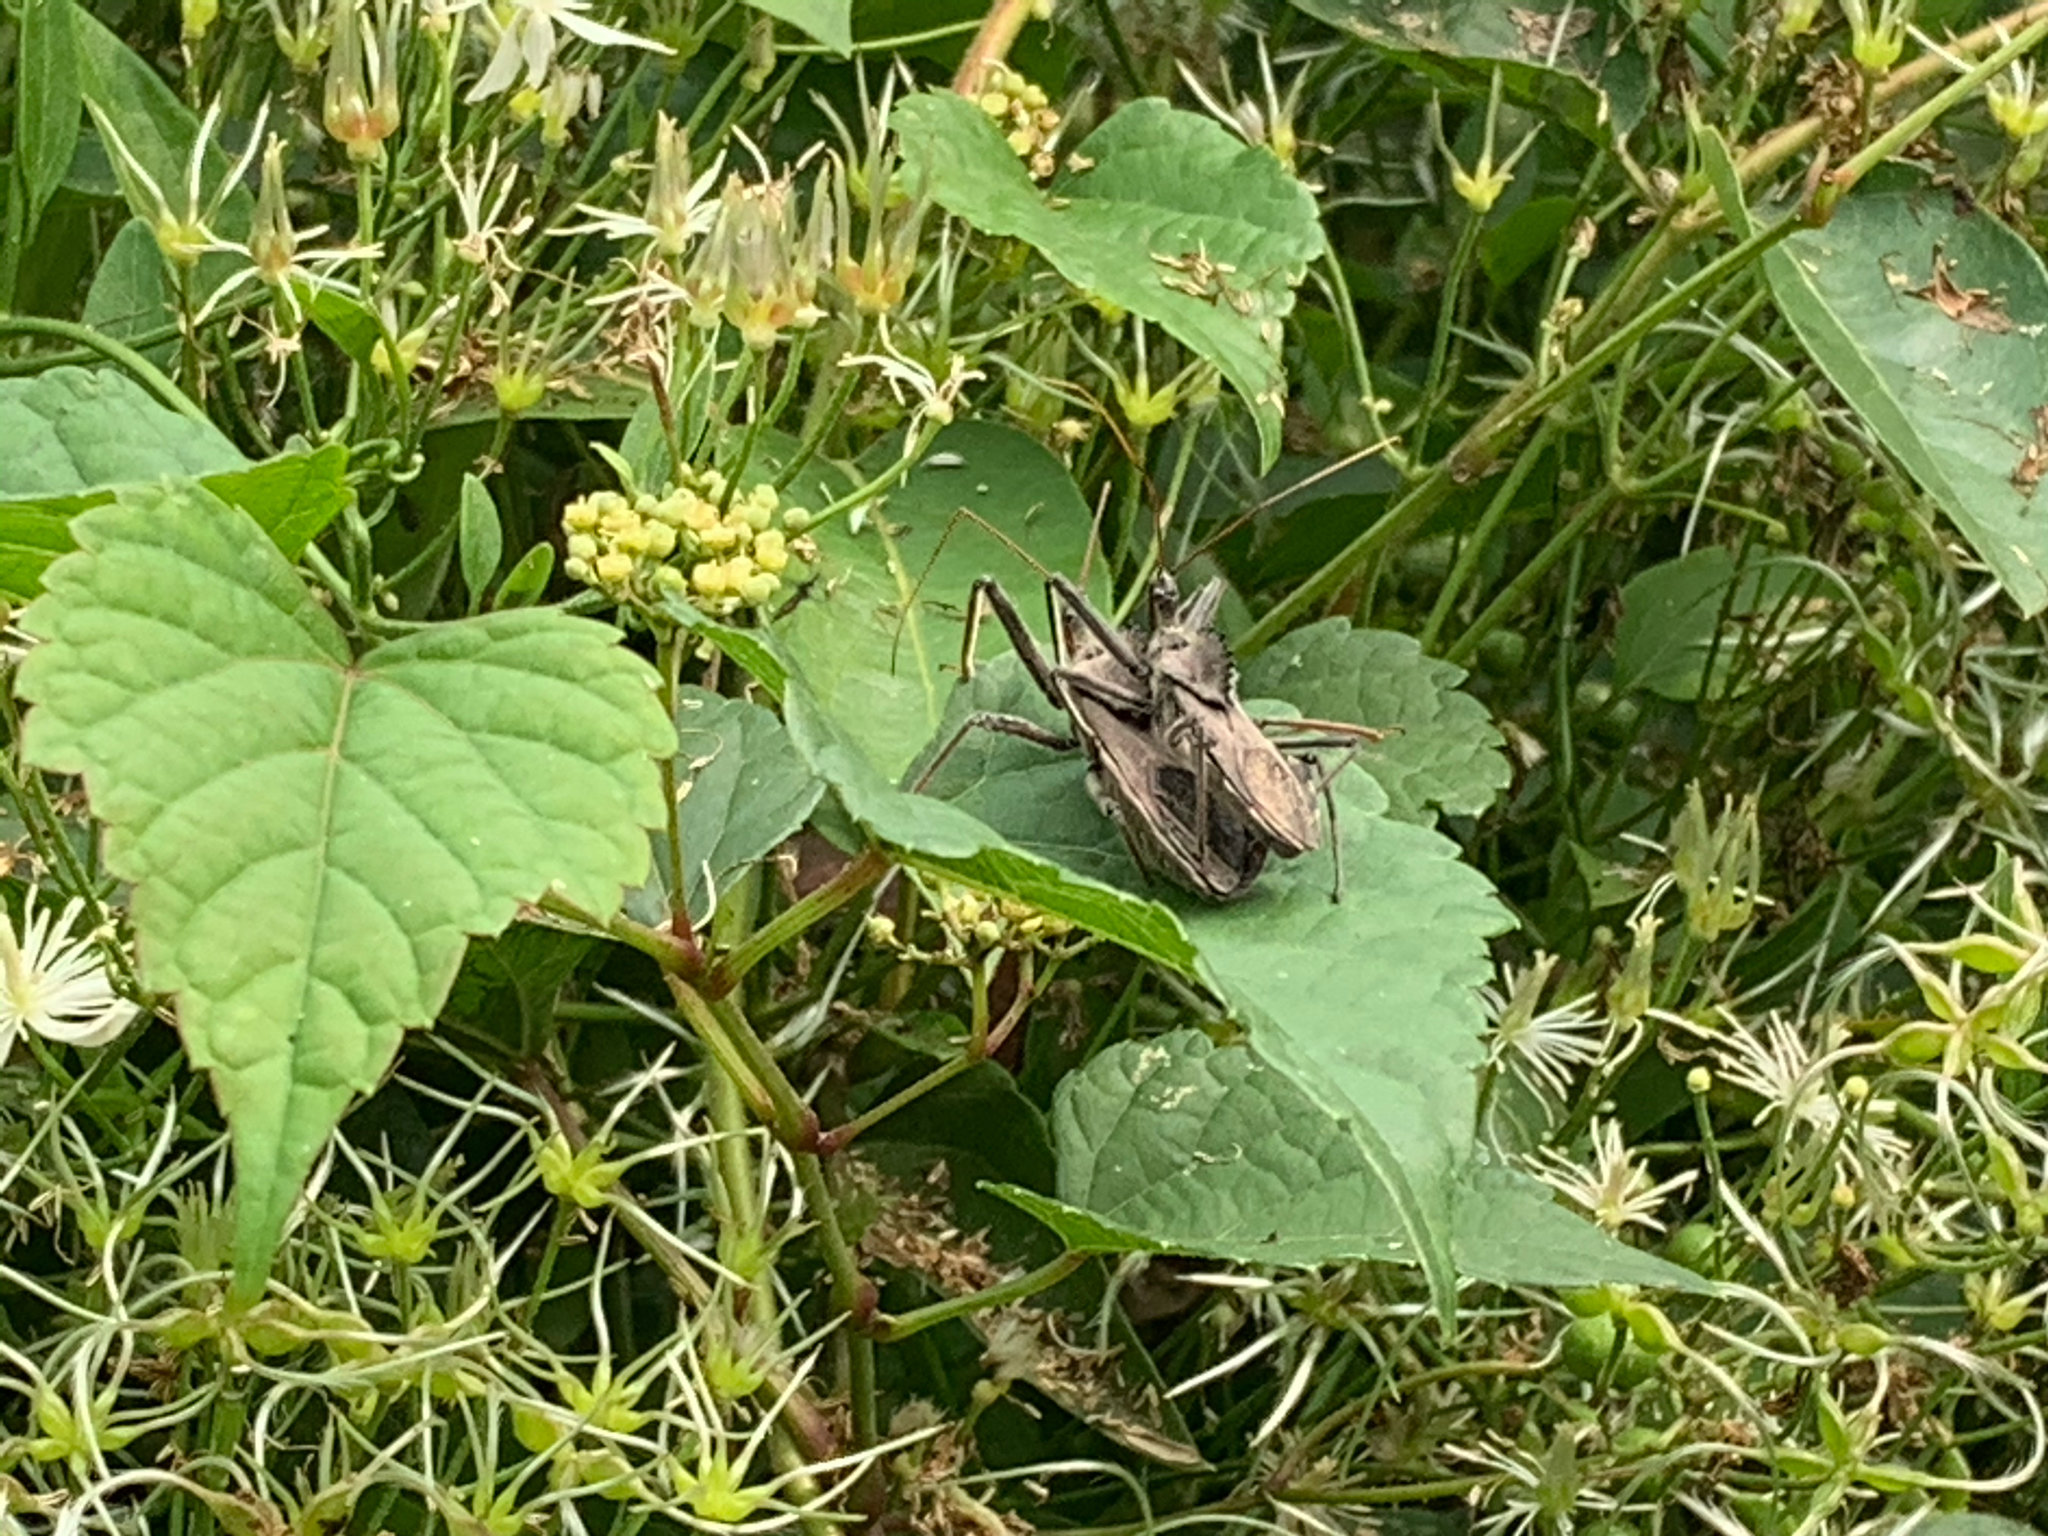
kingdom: Animalia
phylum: Arthropoda
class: Insecta
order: Hemiptera
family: Reduviidae
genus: Arilus
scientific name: Arilus cristatus
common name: North american wheel bug
